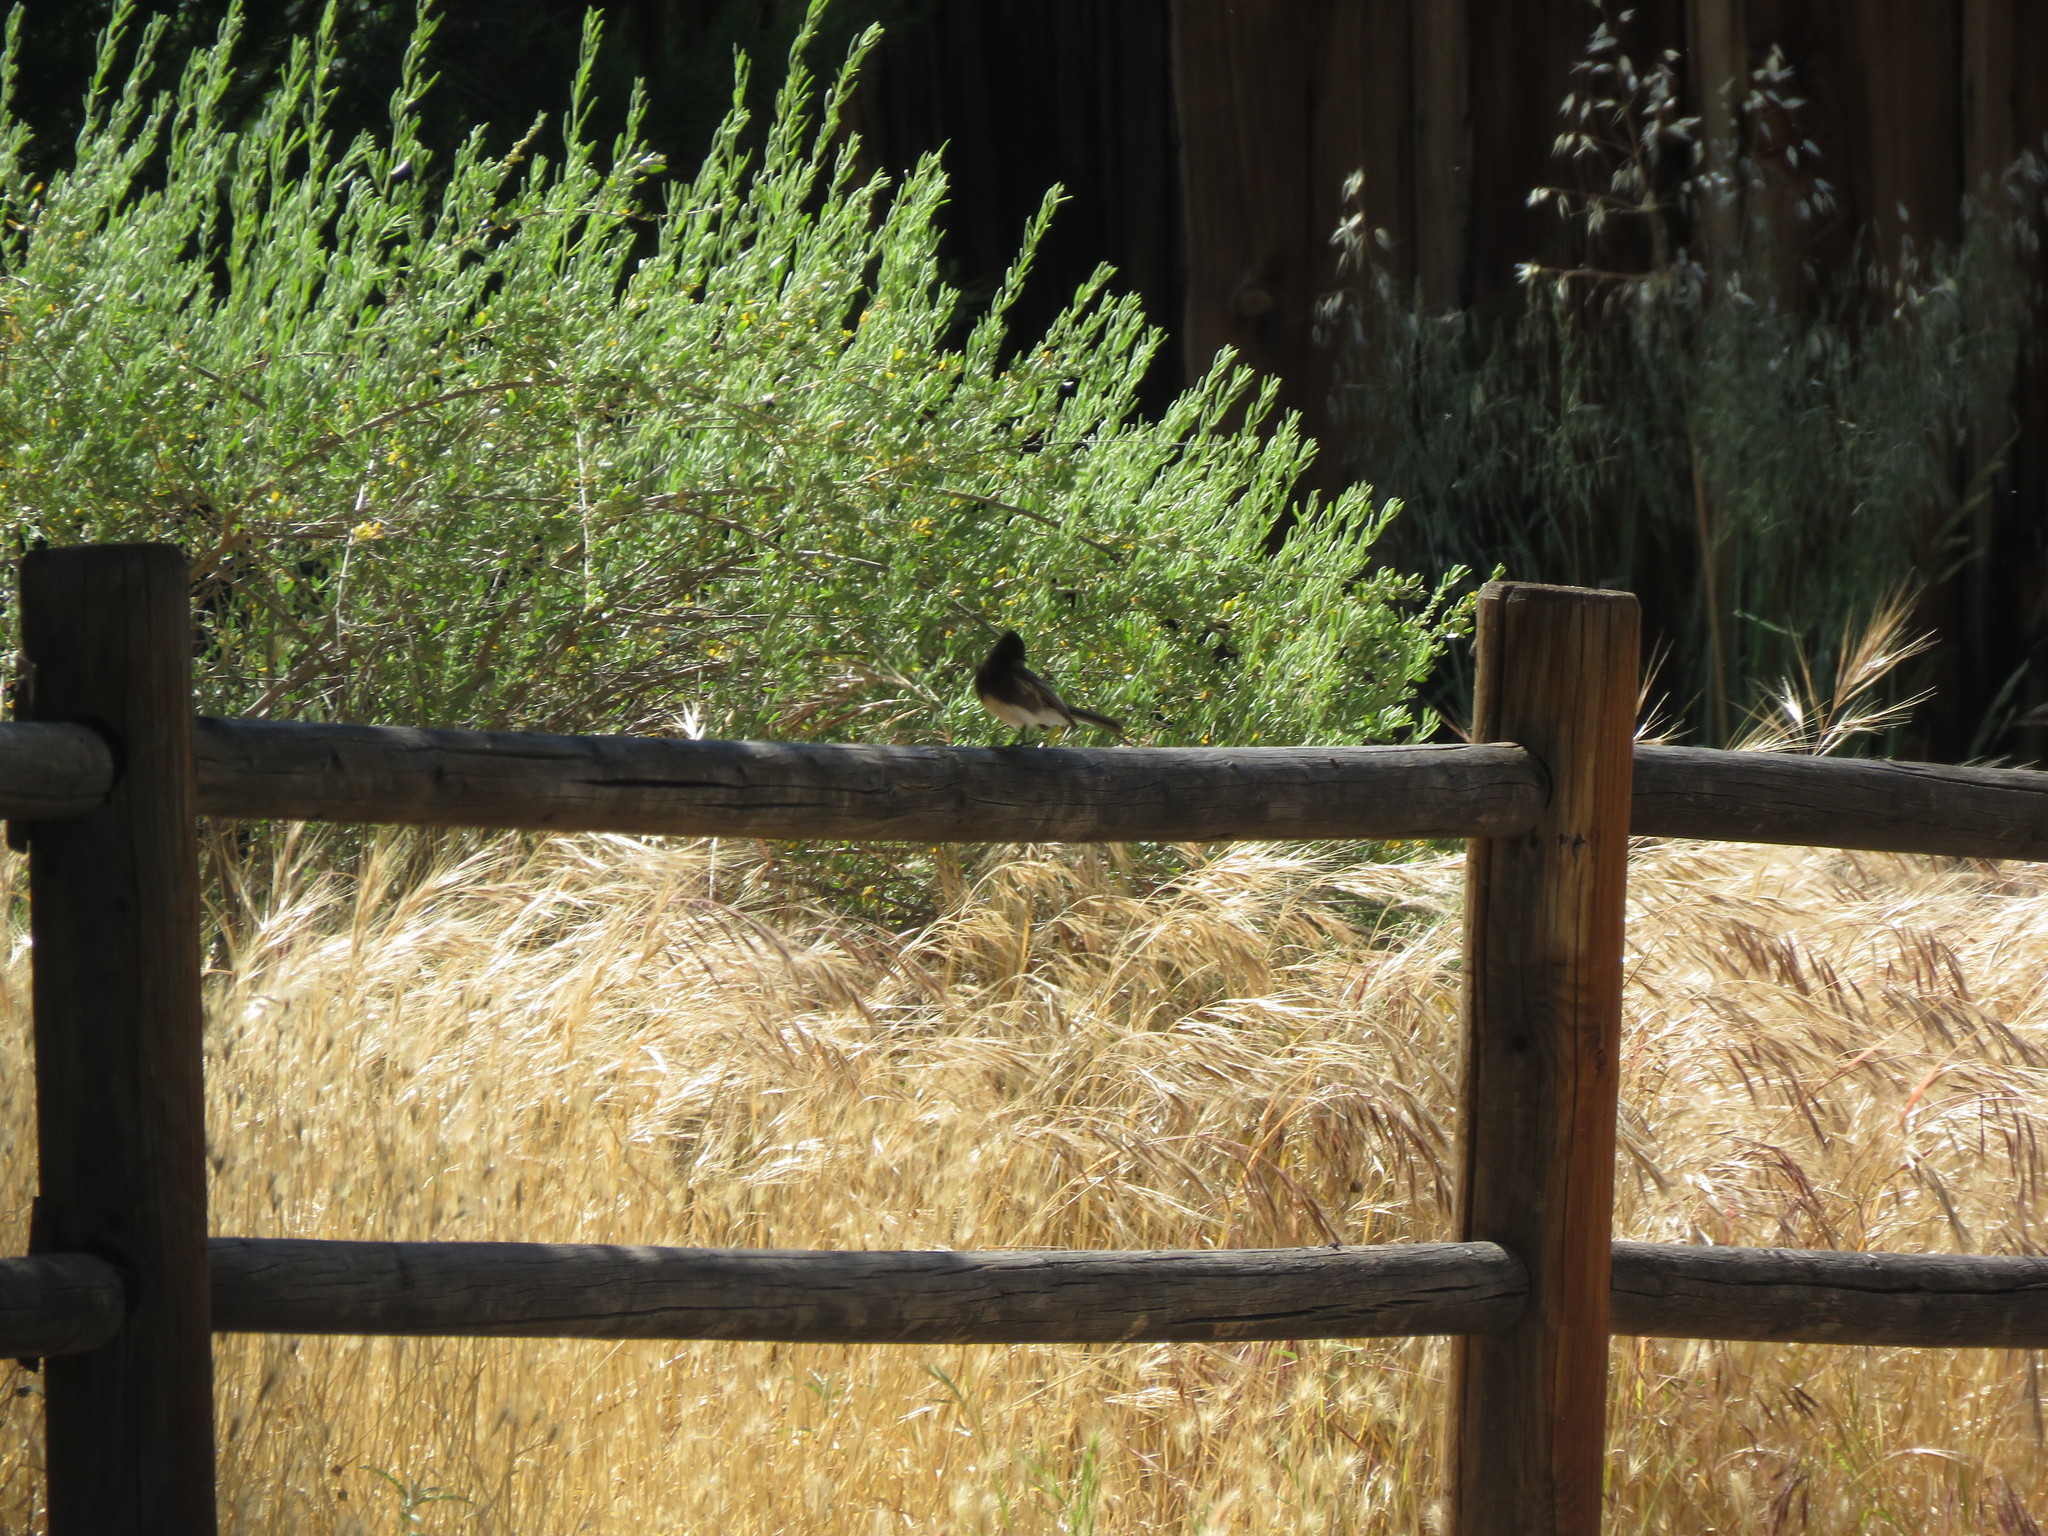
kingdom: Animalia
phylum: Chordata
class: Aves
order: Passeriformes
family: Tyrannidae
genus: Sayornis
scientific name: Sayornis nigricans
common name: Black phoebe
